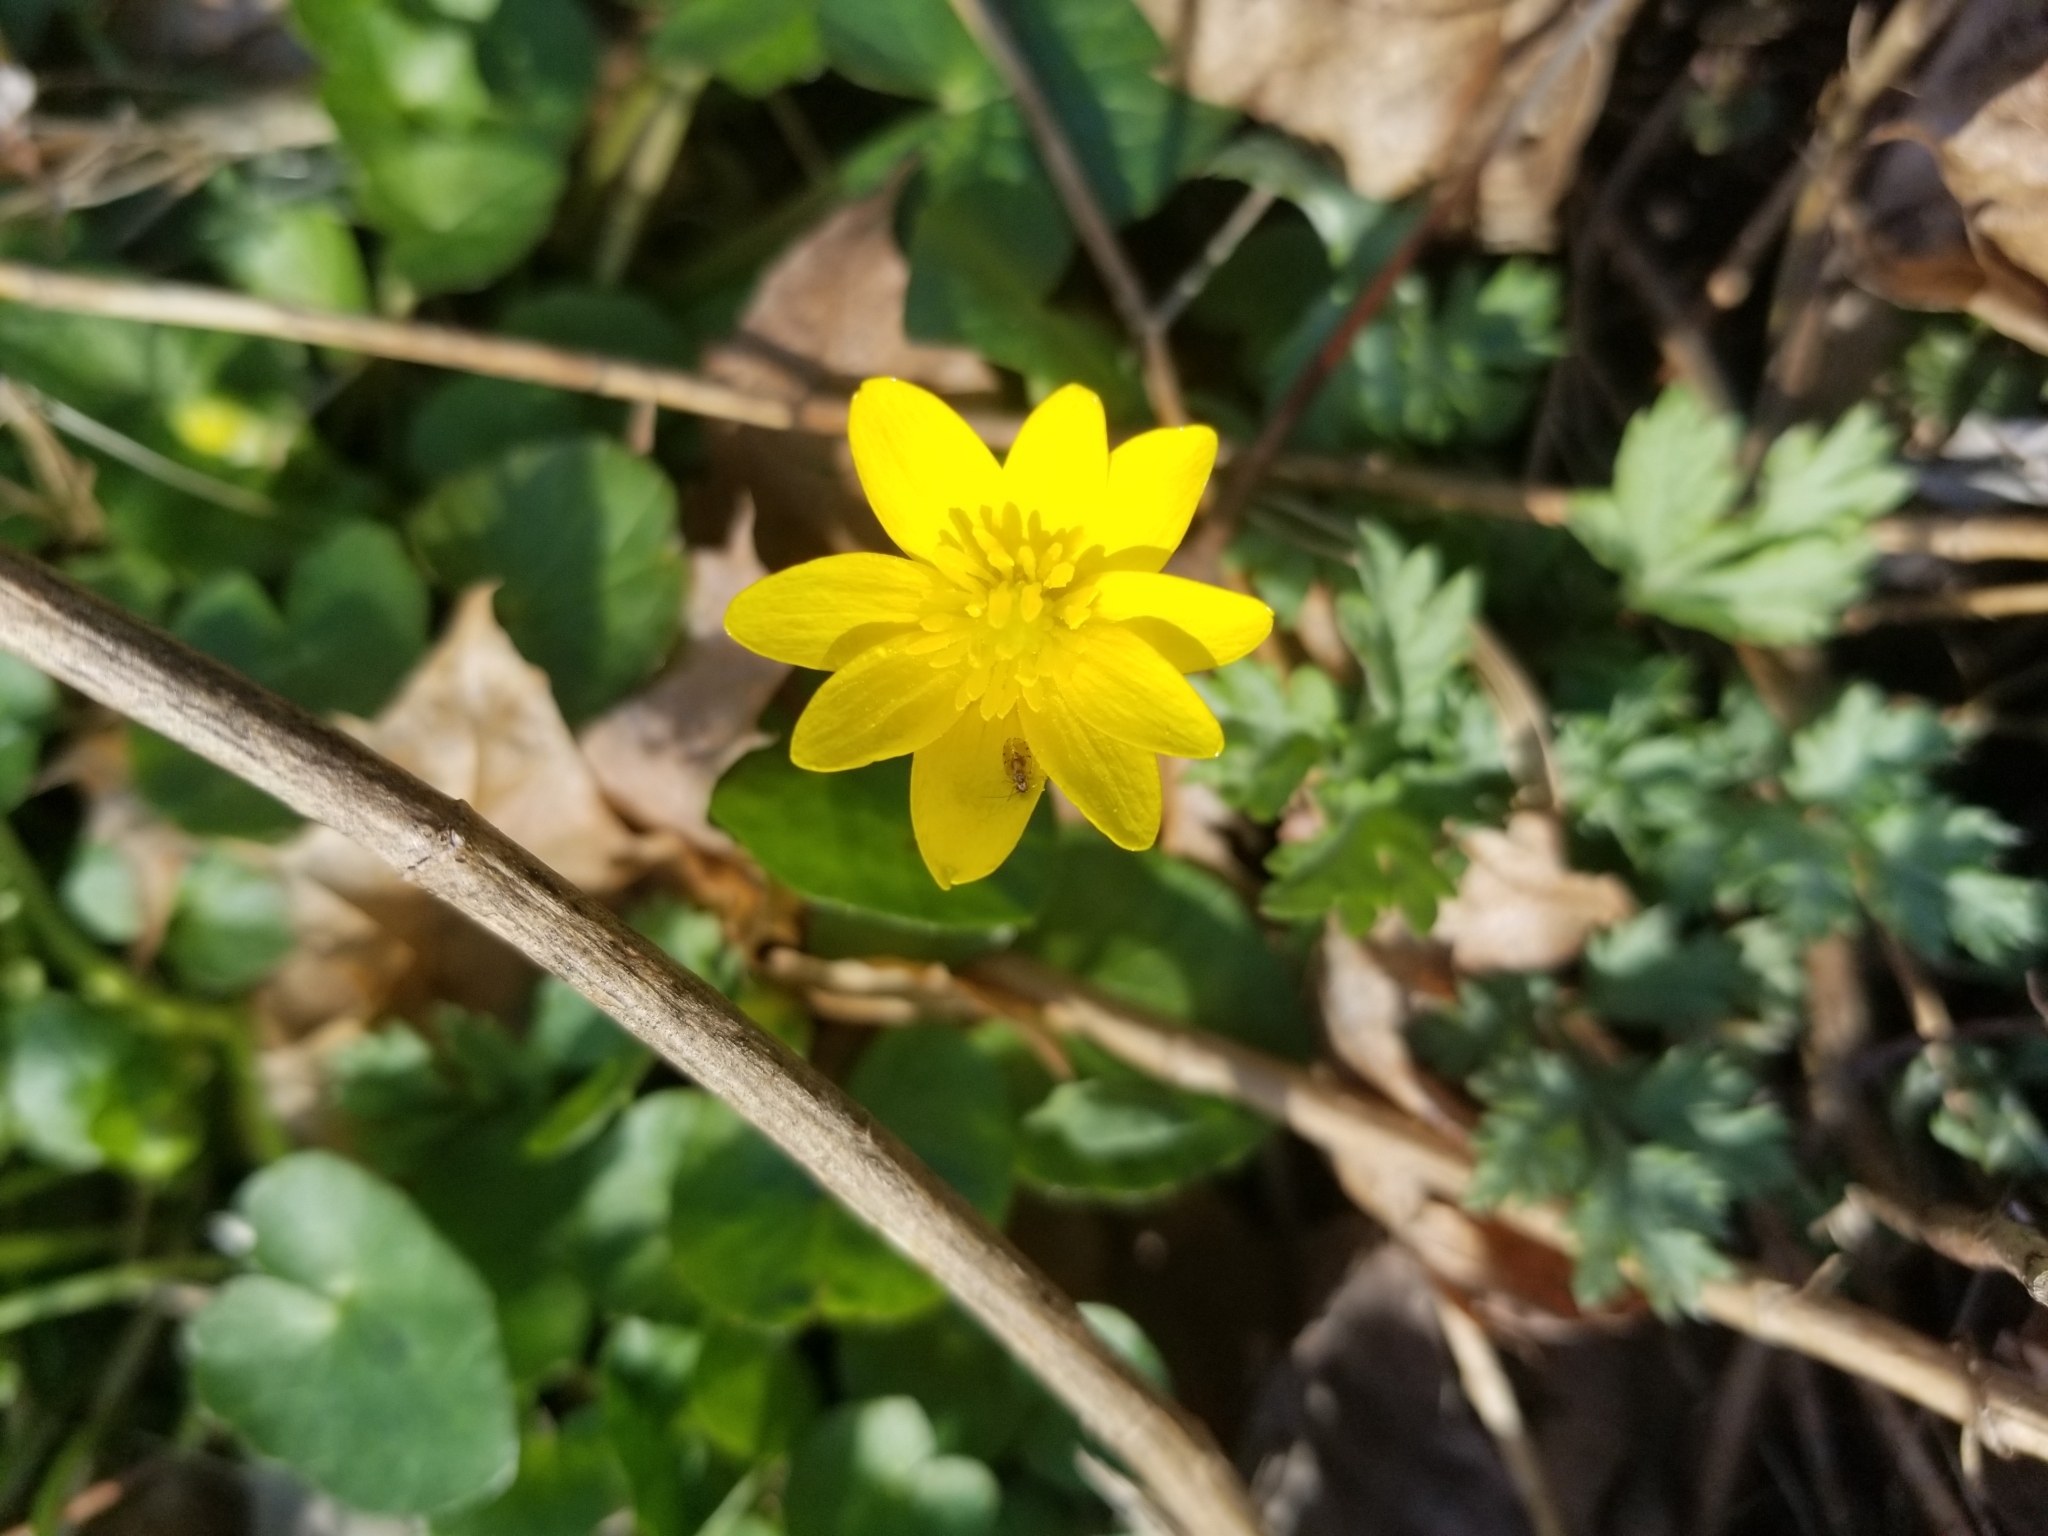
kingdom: Plantae
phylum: Tracheophyta
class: Magnoliopsida
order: Ranunculales
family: Ranunculaceae
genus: Ficaria
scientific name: Ficaria verna
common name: Lesser celandine
